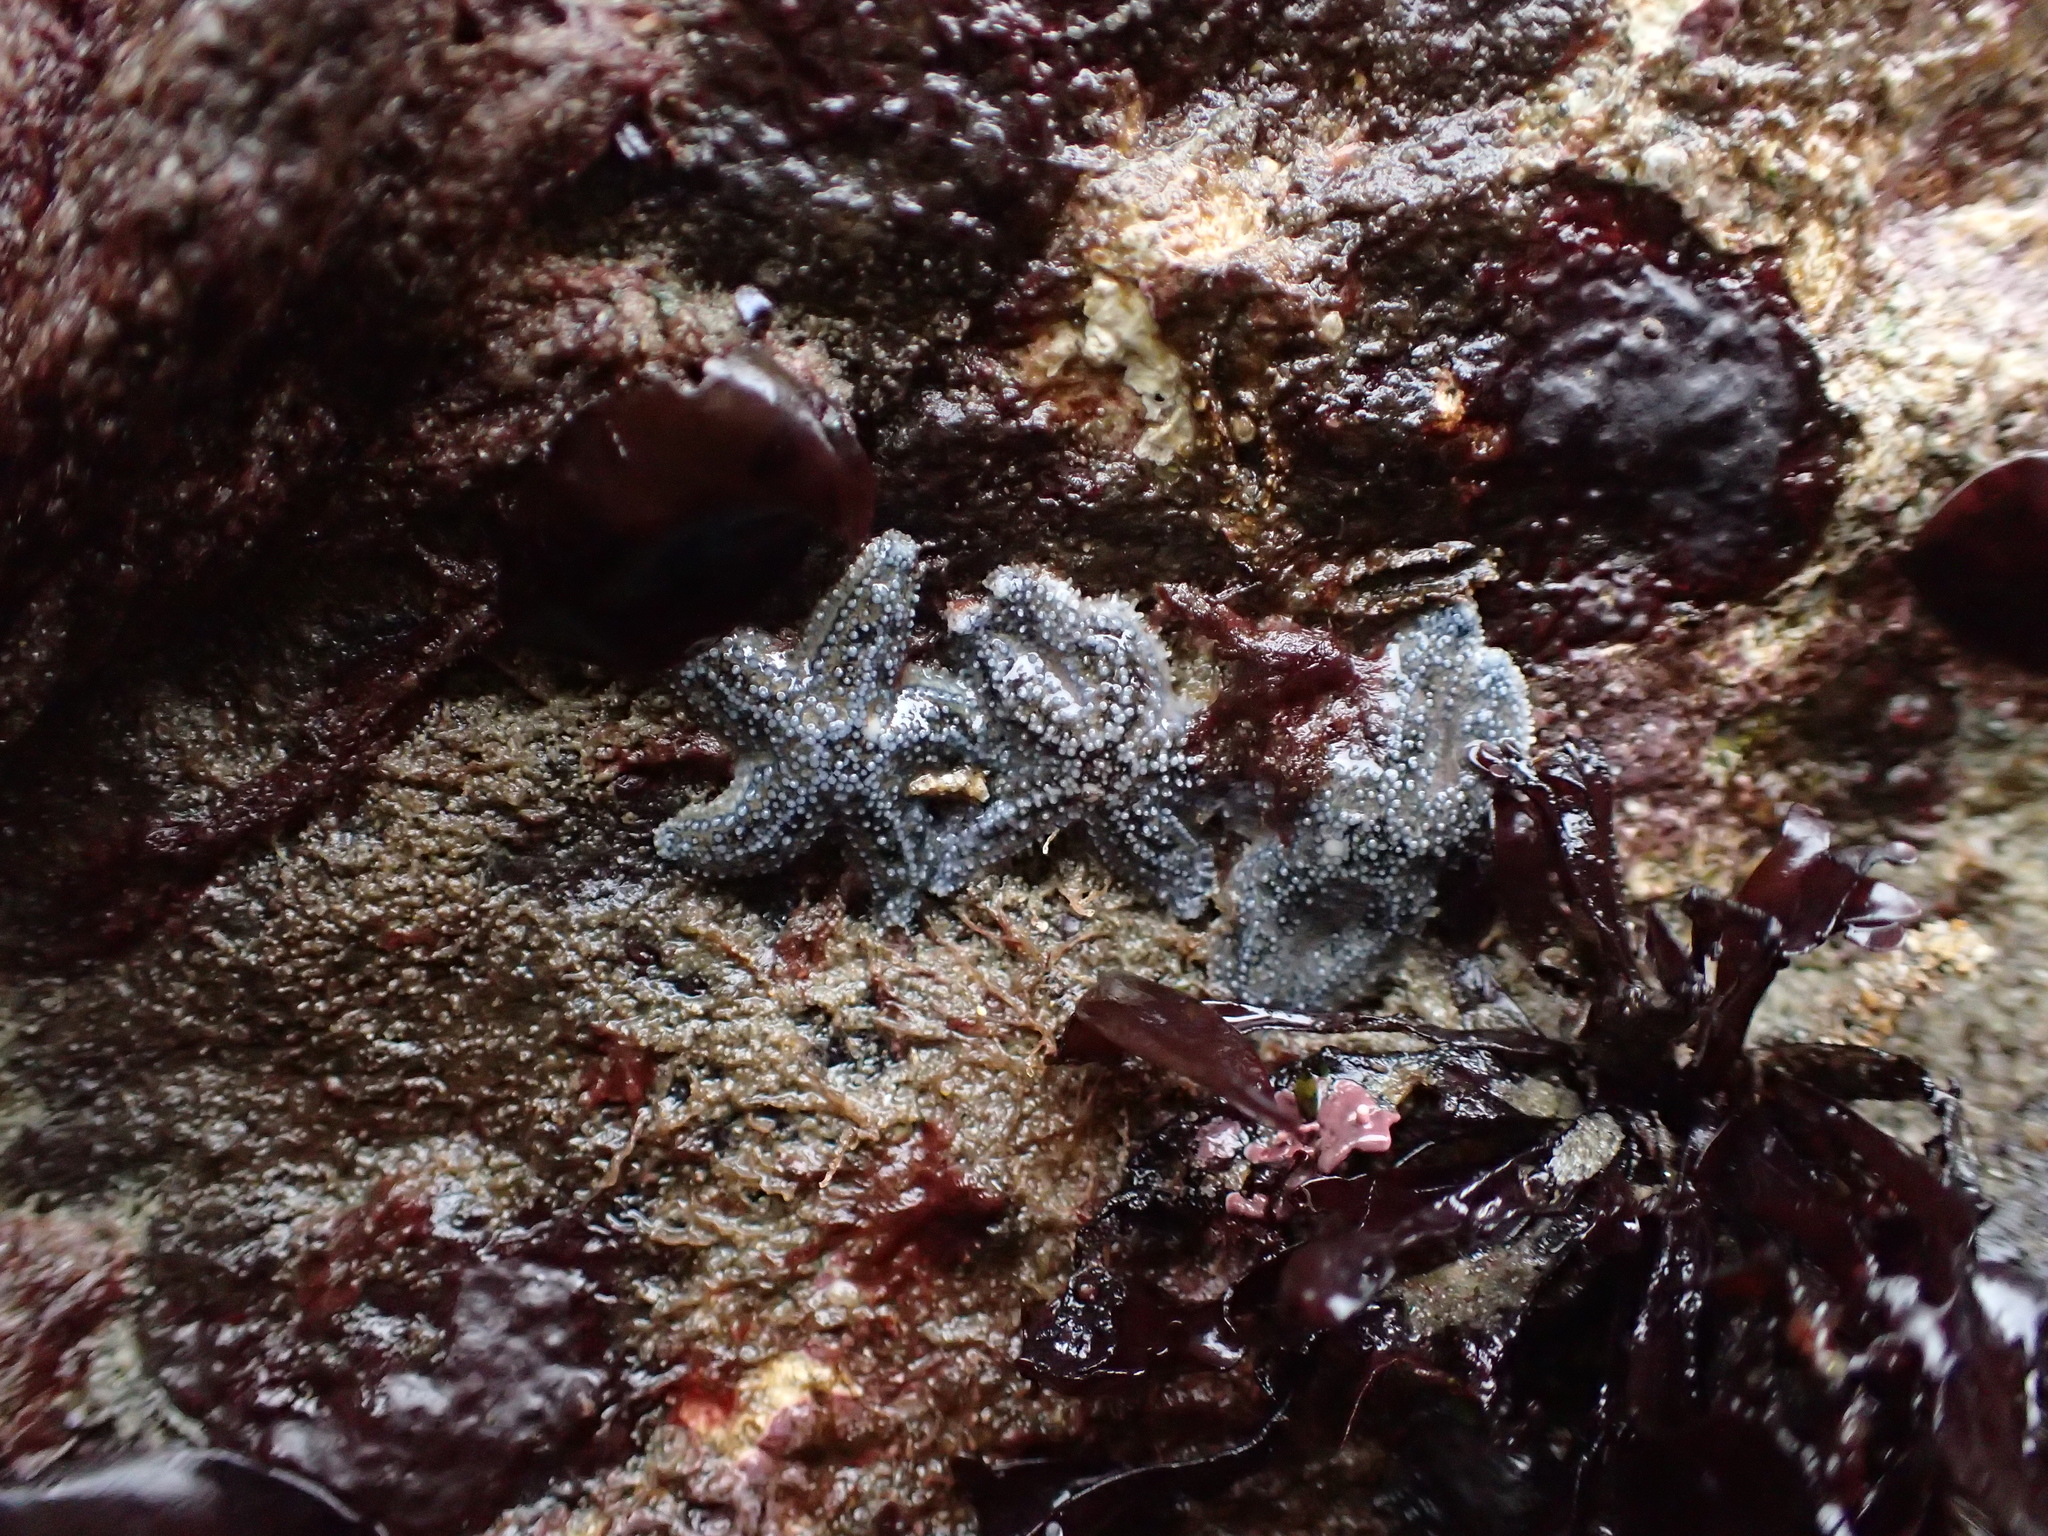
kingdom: Animalia
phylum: Echinodermata
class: Asteroidea
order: Forcipulatida
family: Asteriidae
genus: Pisaster
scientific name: Pisaster ochraceus
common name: Ochre stars
